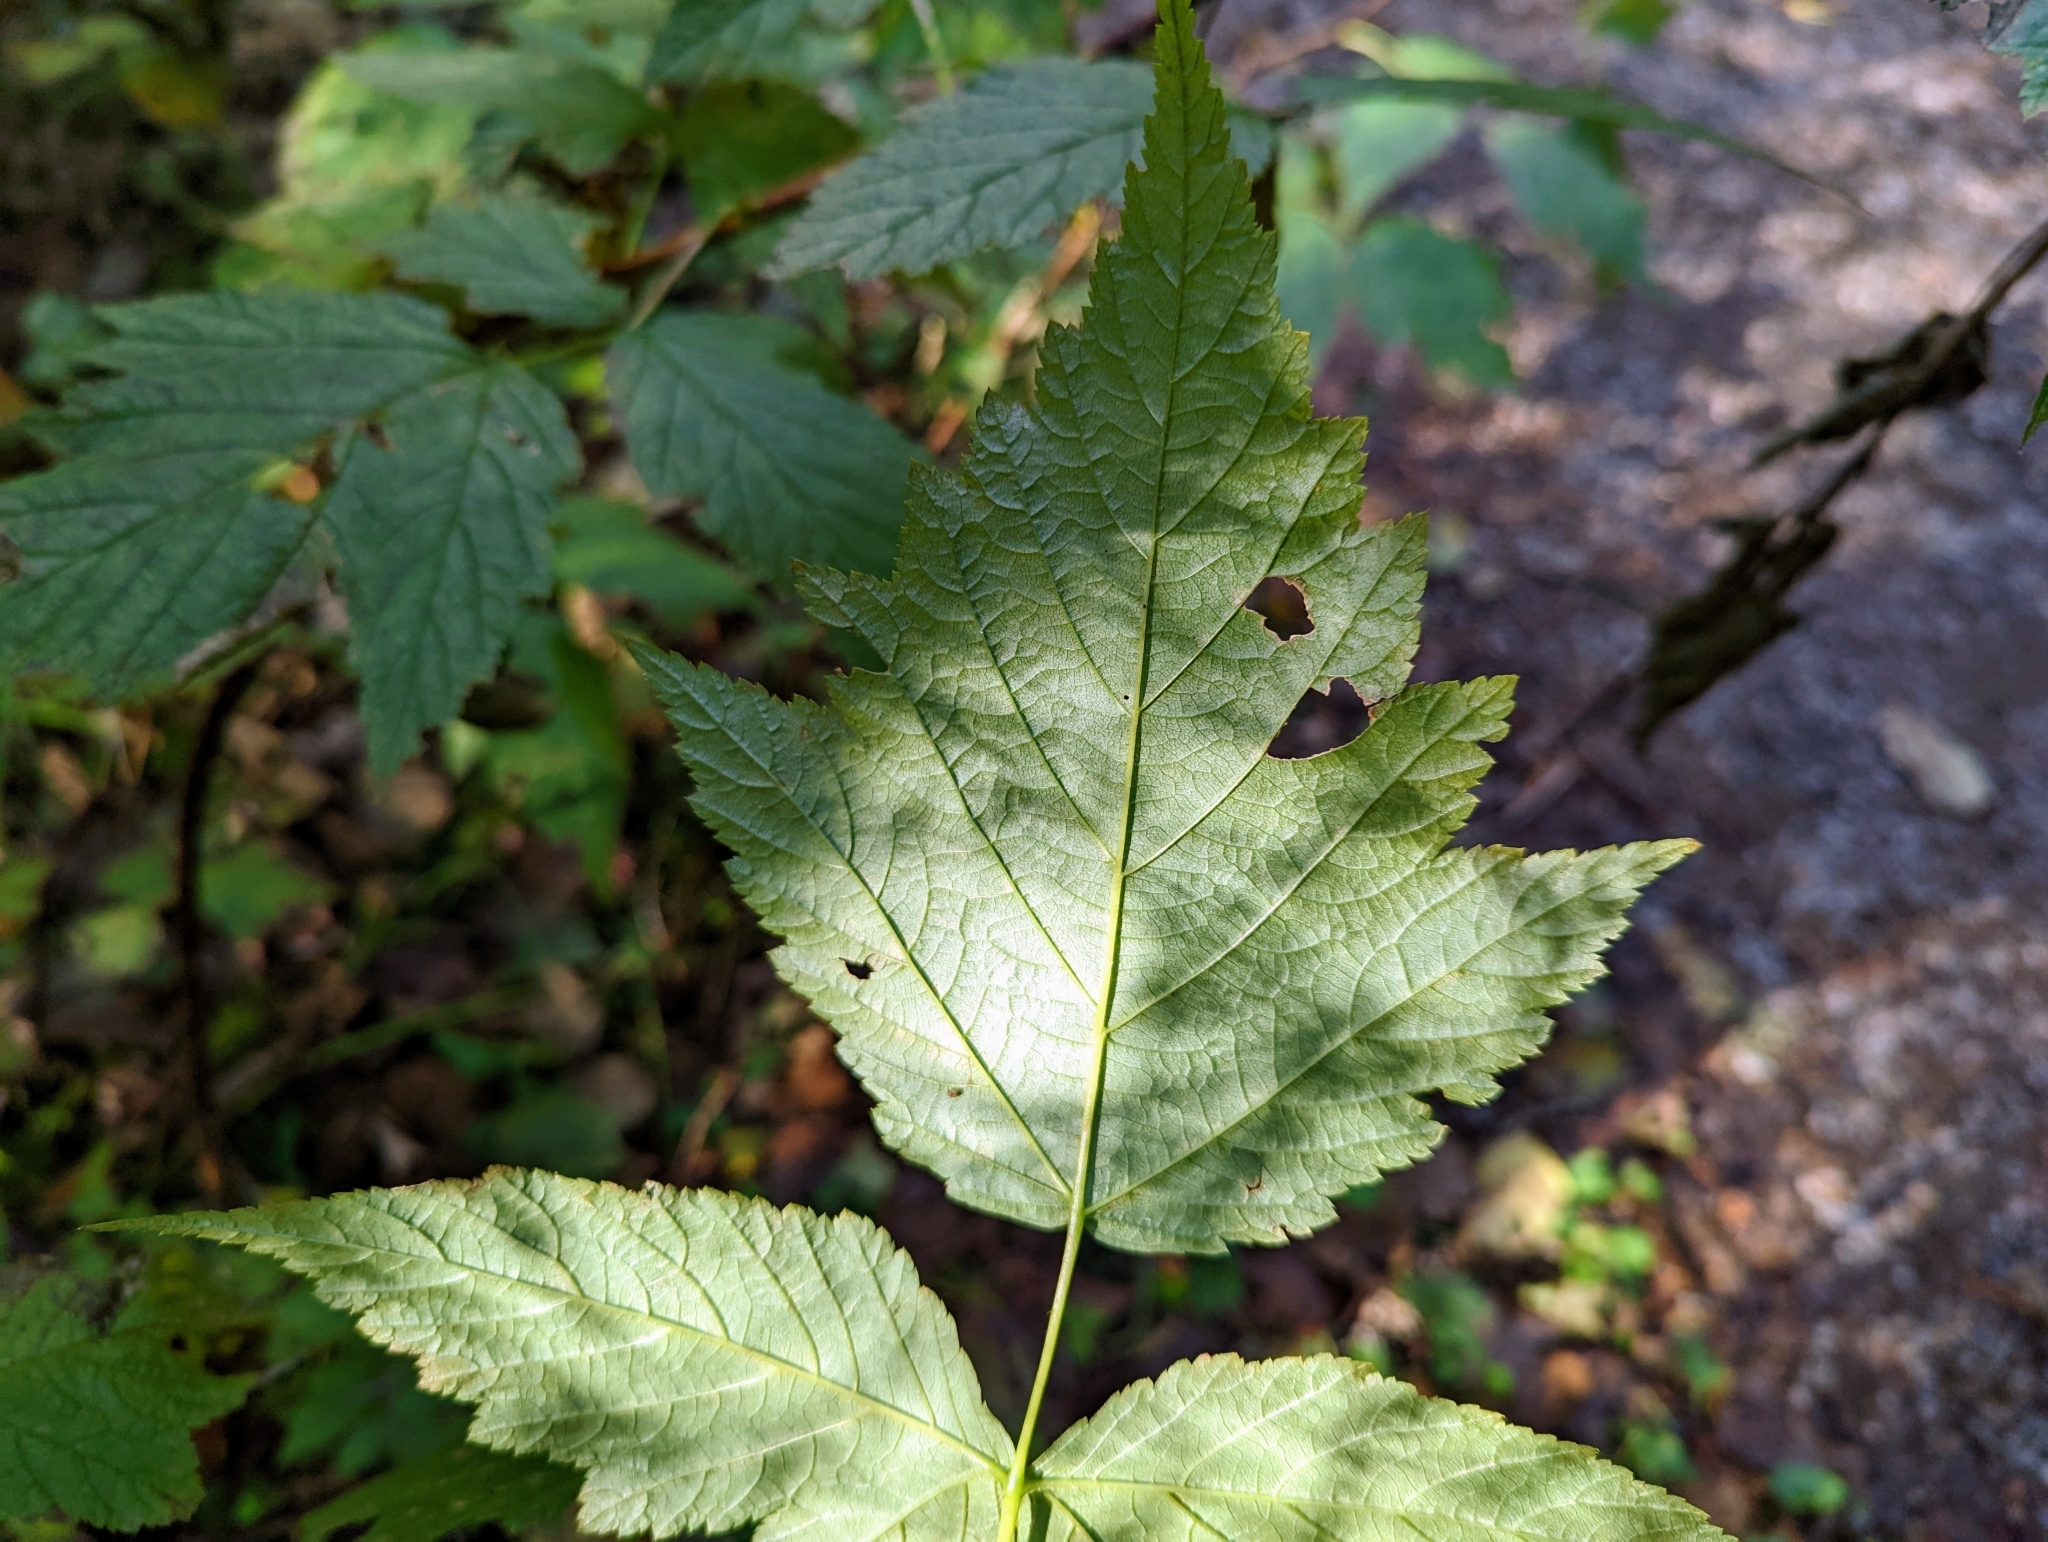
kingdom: Plantae
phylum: Tracheophyta
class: Magnoliopsida
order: Rosales
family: Rosaceae
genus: Rubus
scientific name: Rubus spectabilis
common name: Salmonberry
